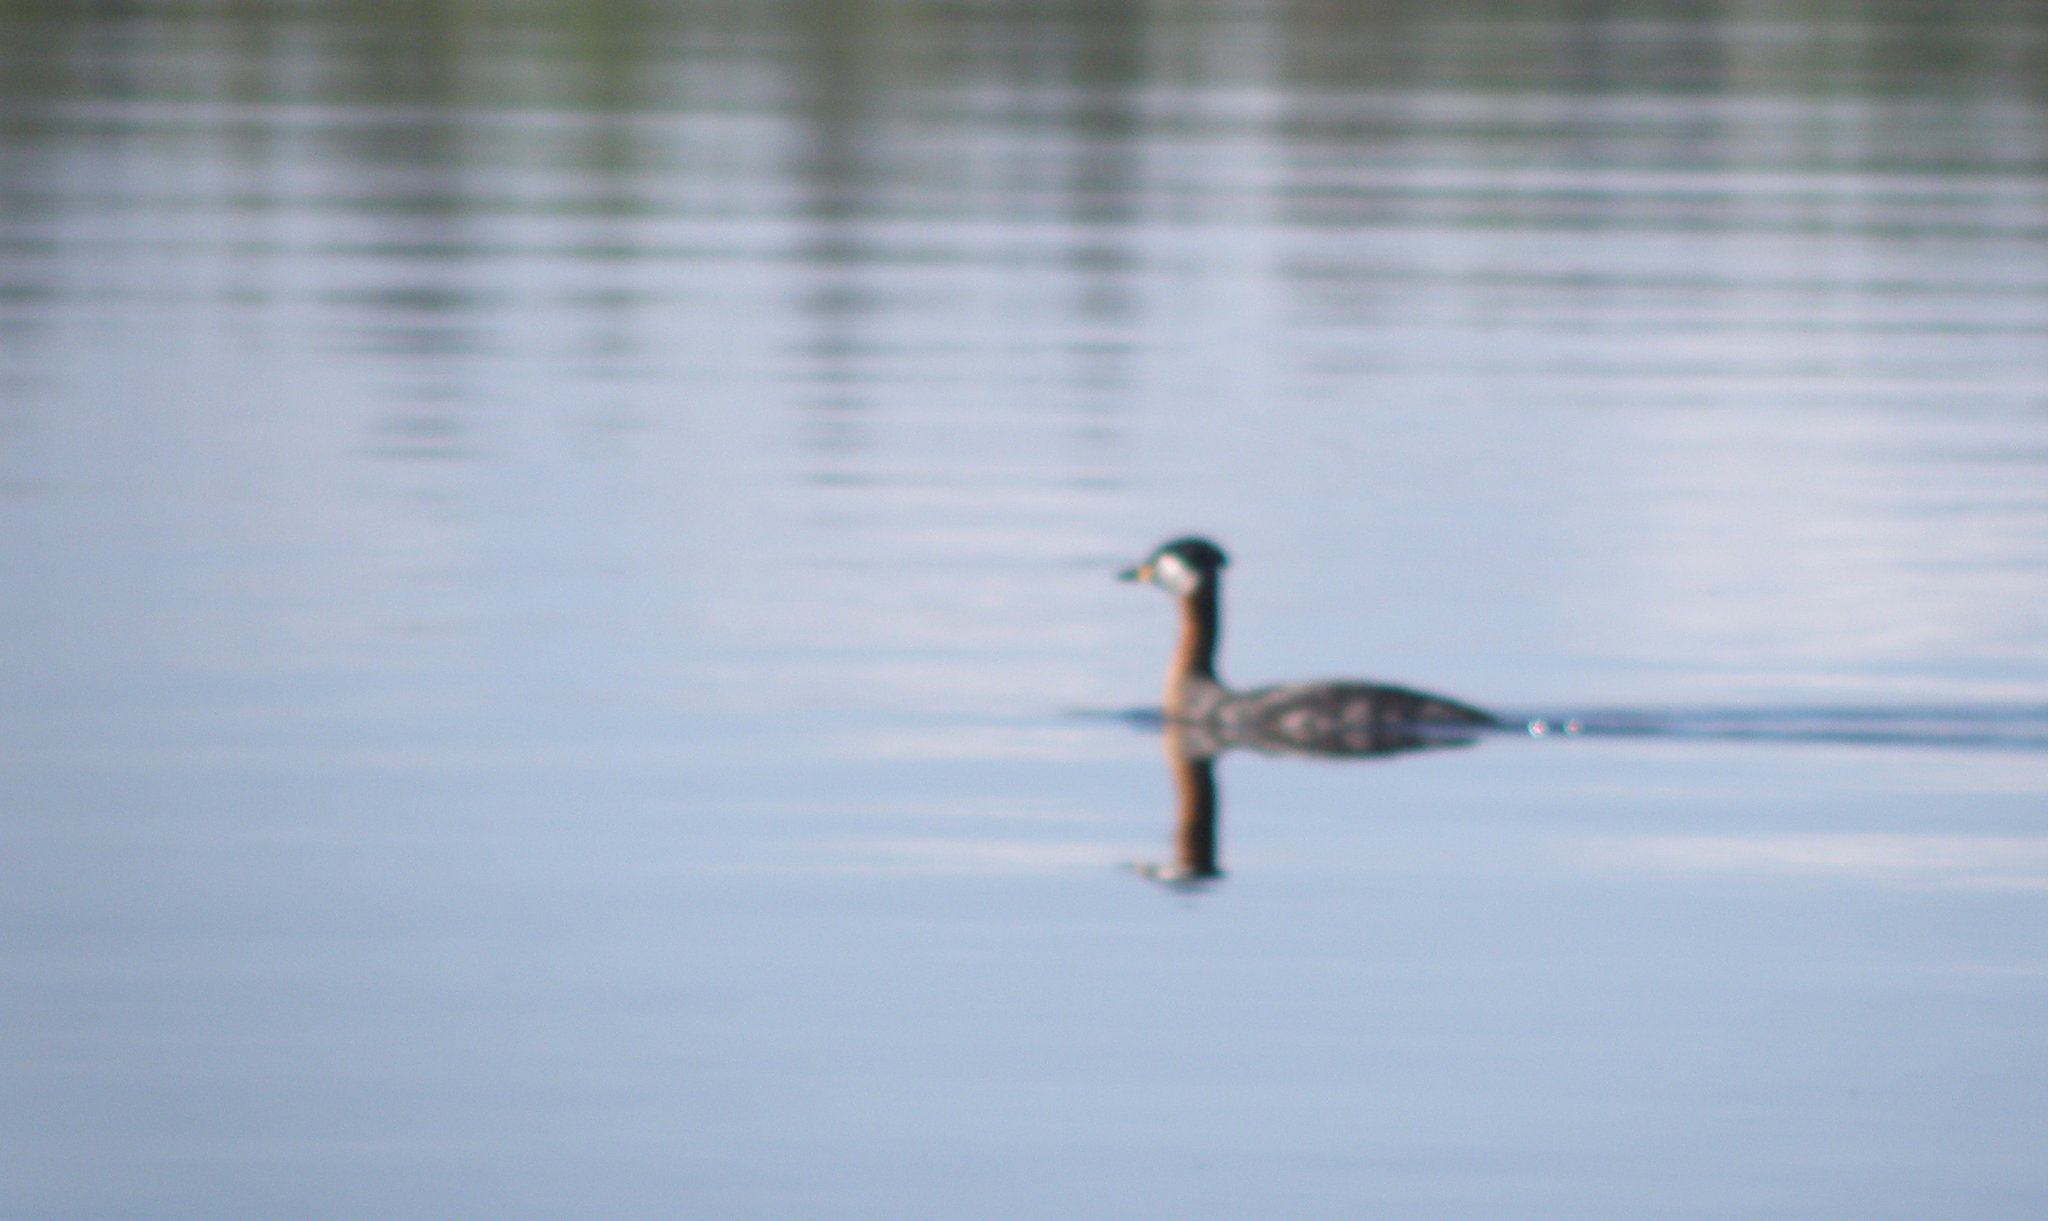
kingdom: Animalia
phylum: Chordata
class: Aves
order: Podicipediformes
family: Podicipedidae
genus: Podiceps
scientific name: Podiceps grisegena
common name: Red-necked grebe
